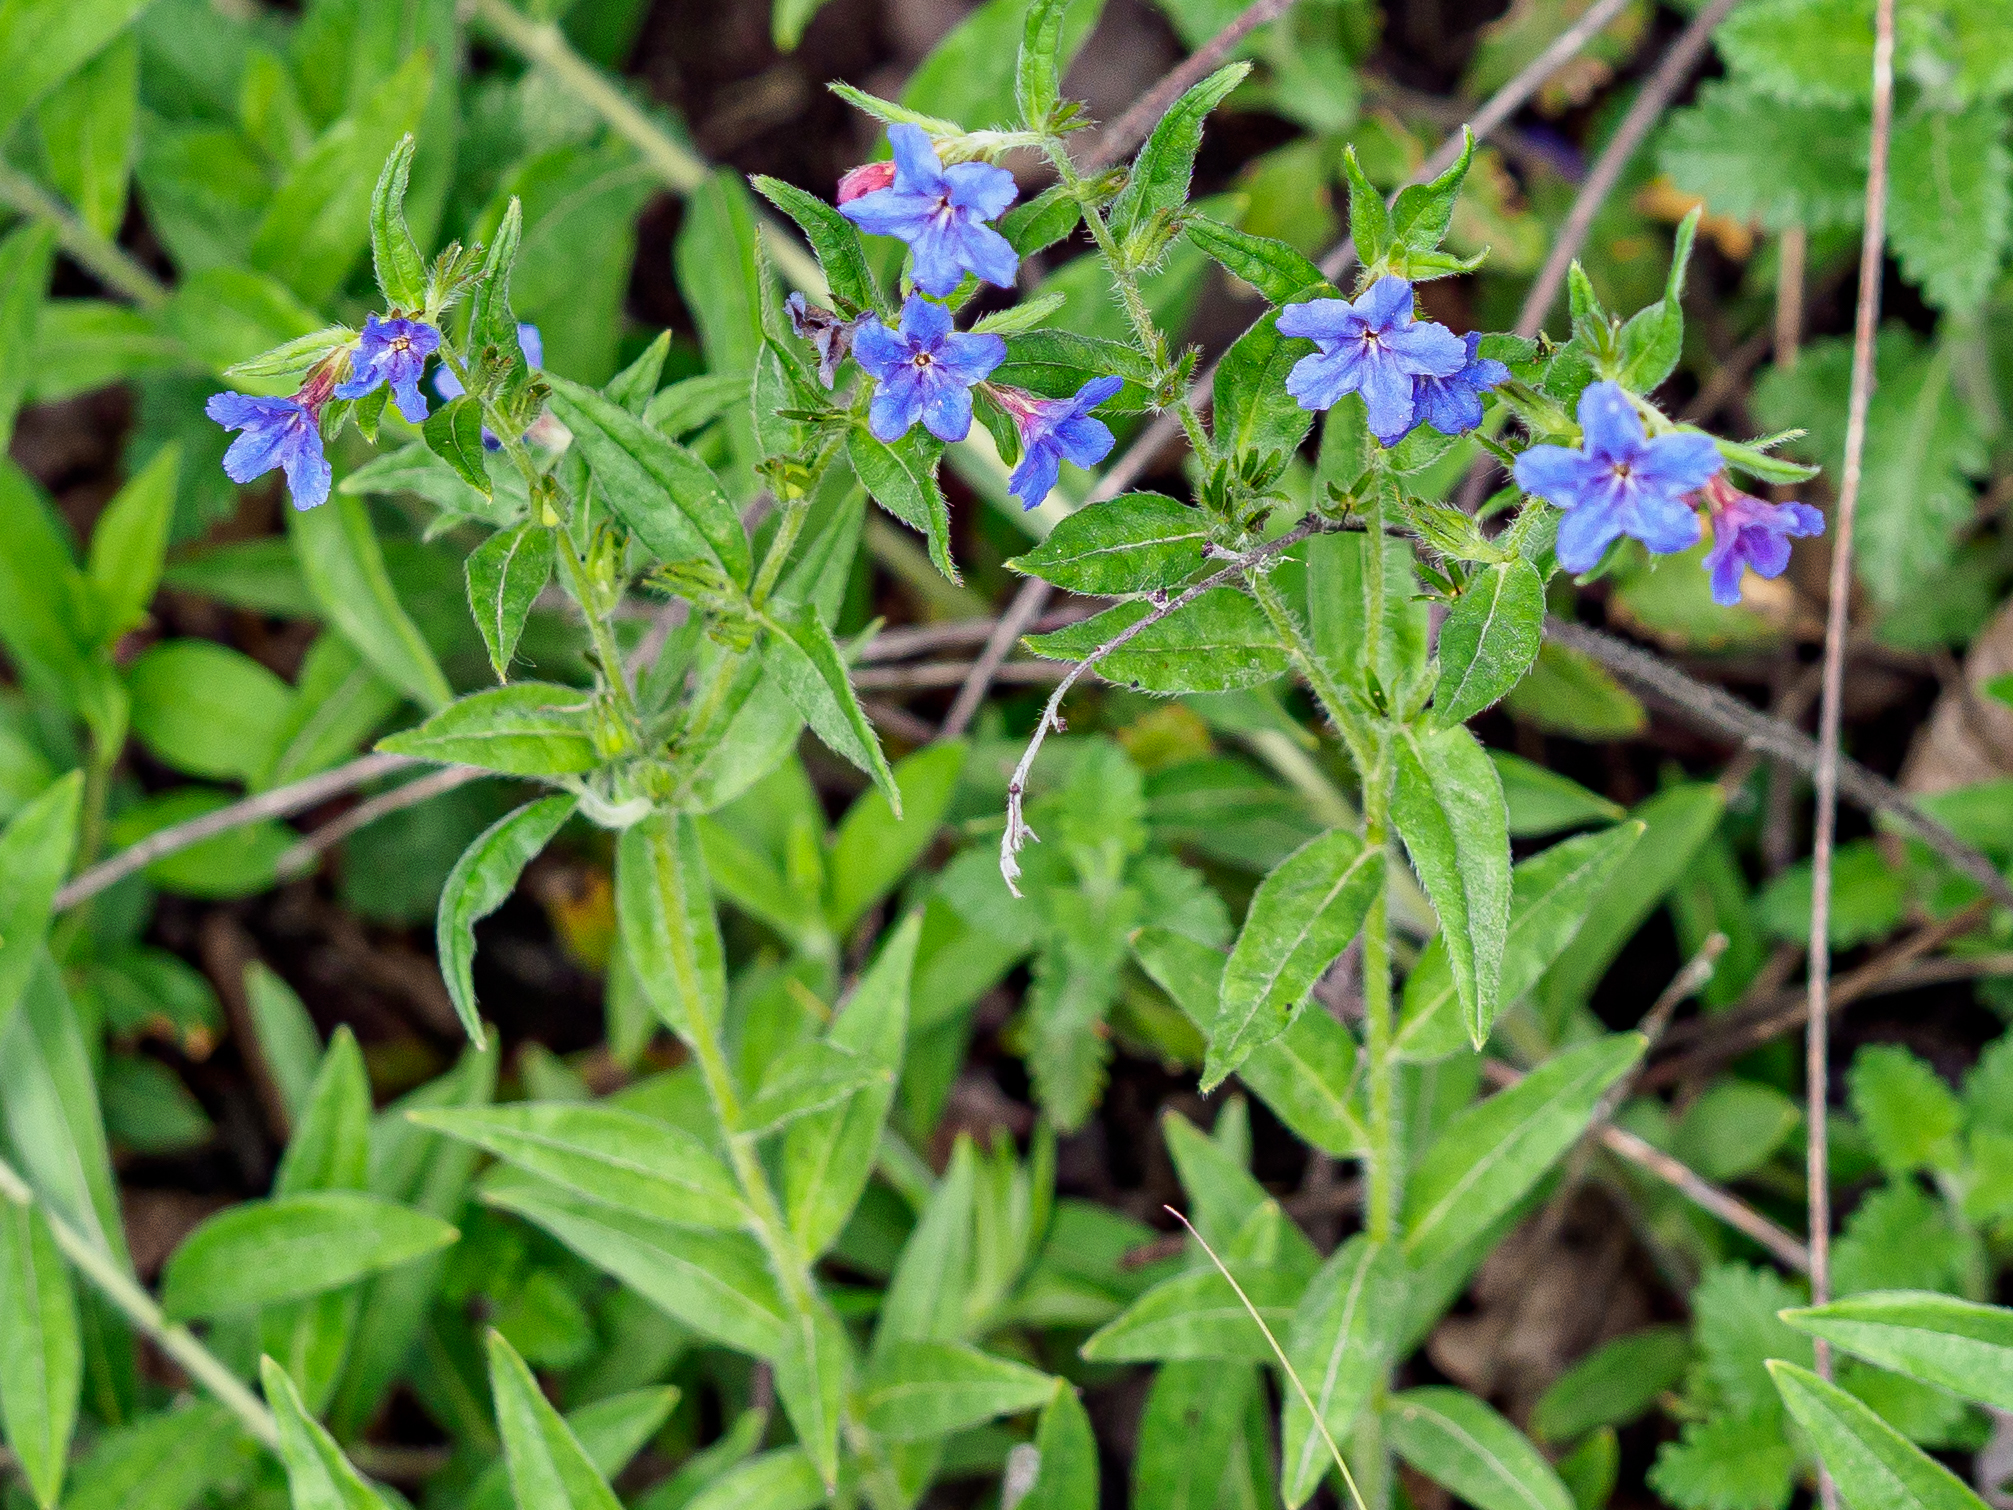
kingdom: Plantae
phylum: Tracheophyta
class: Magnoliopsida
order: Boraginales
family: Boraginaceae
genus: Aegonychon
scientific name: Aegonychon purpurocaeruleum
